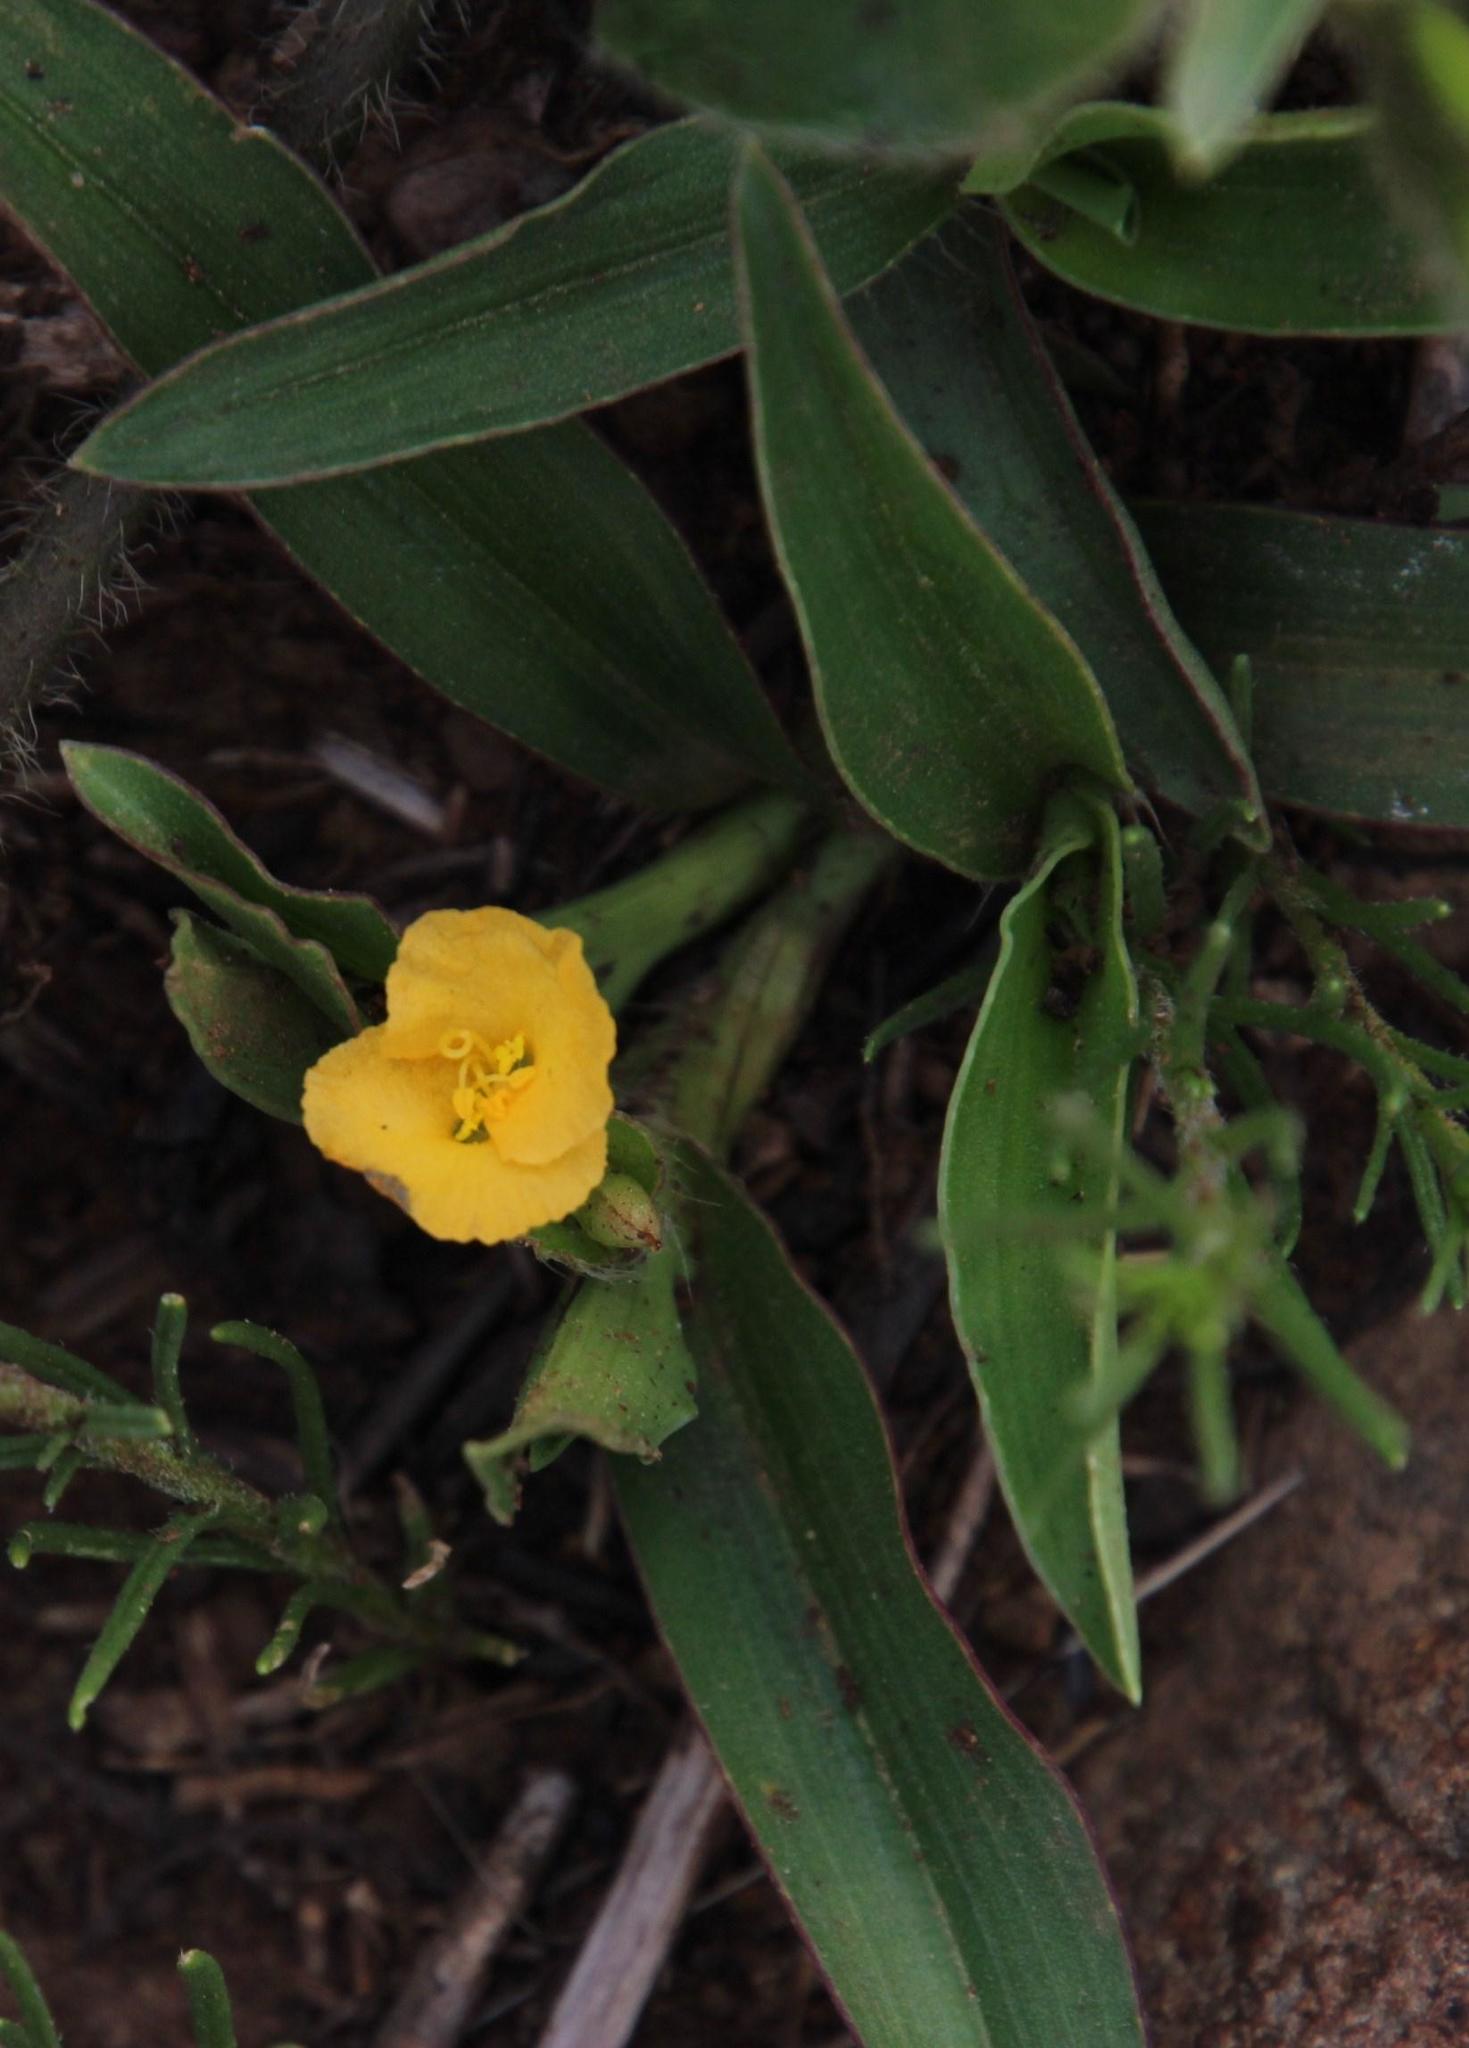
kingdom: Plantae
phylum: Tracheophyta
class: Liliopsida
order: Commelinales
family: Commelinaceae
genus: Commelina
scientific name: Commelina africana
